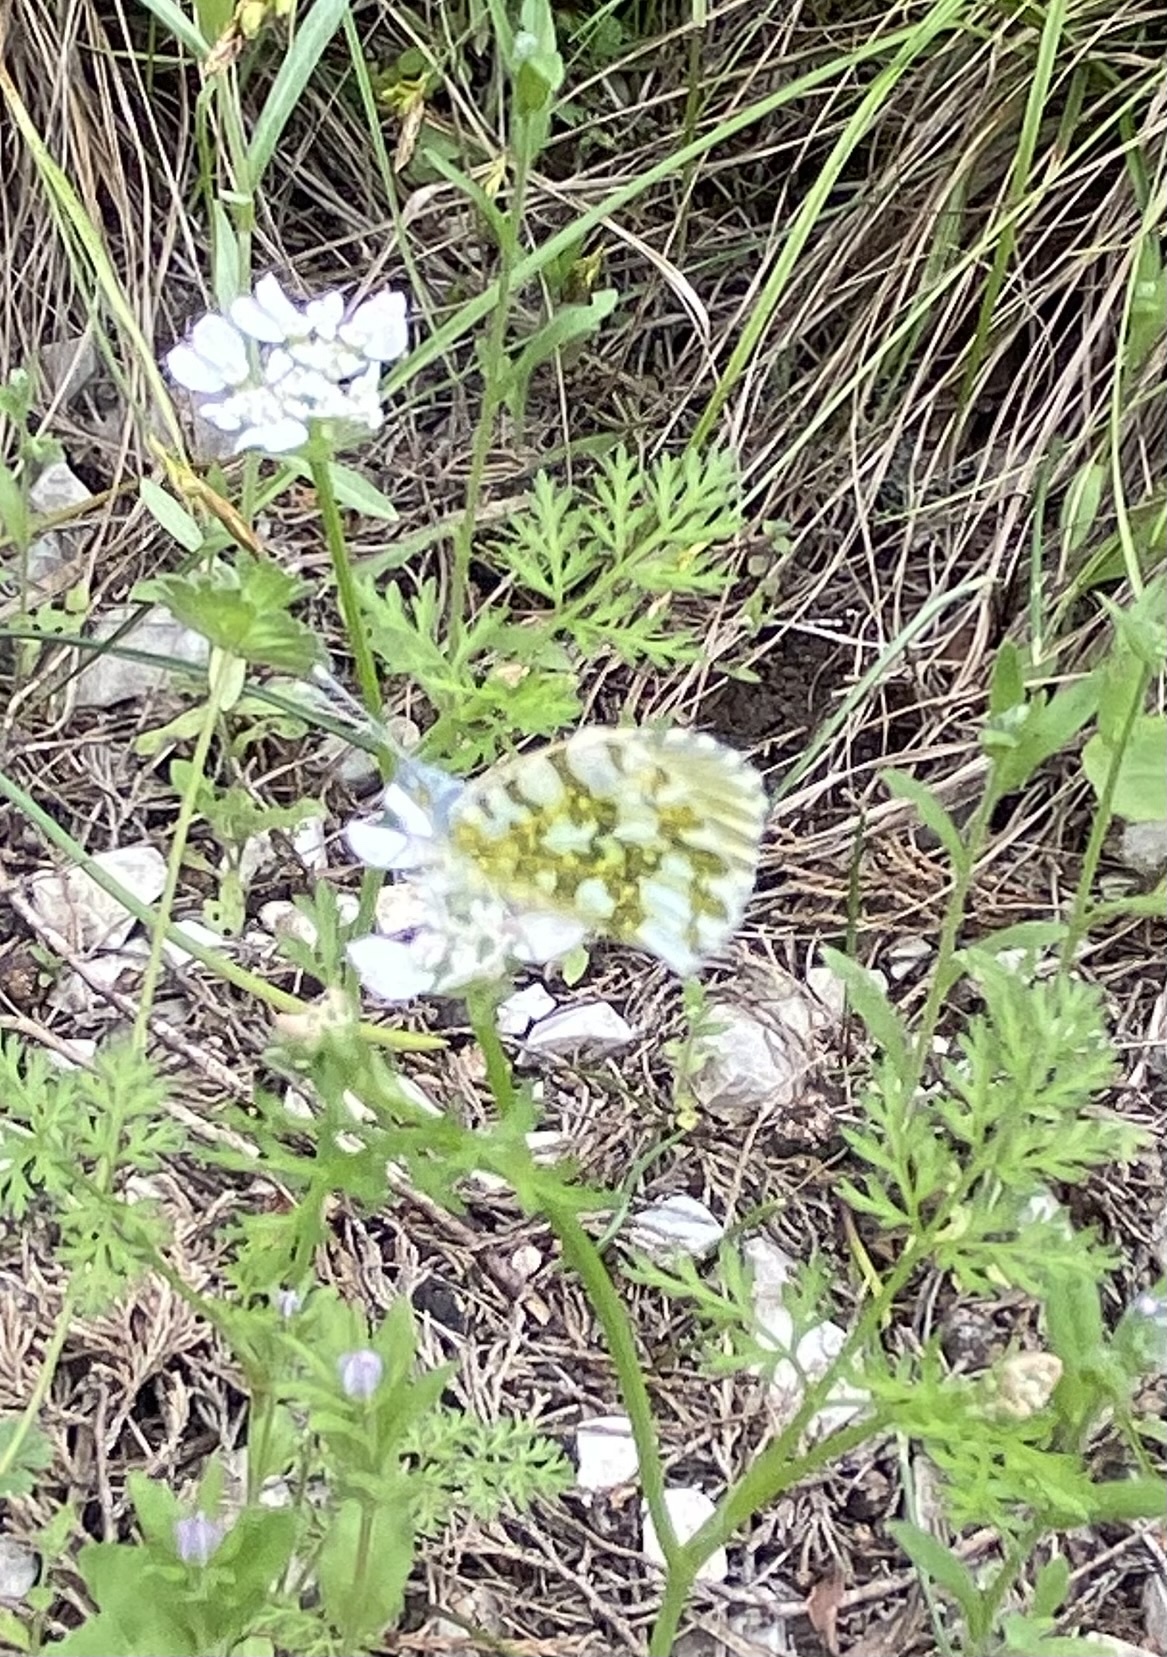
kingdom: Animalia
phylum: Arthropoda
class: Insecta
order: Lepidoptera
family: Pieridae
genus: Anthocharis
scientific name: Anthocharis cardamines
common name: Orange-tip
